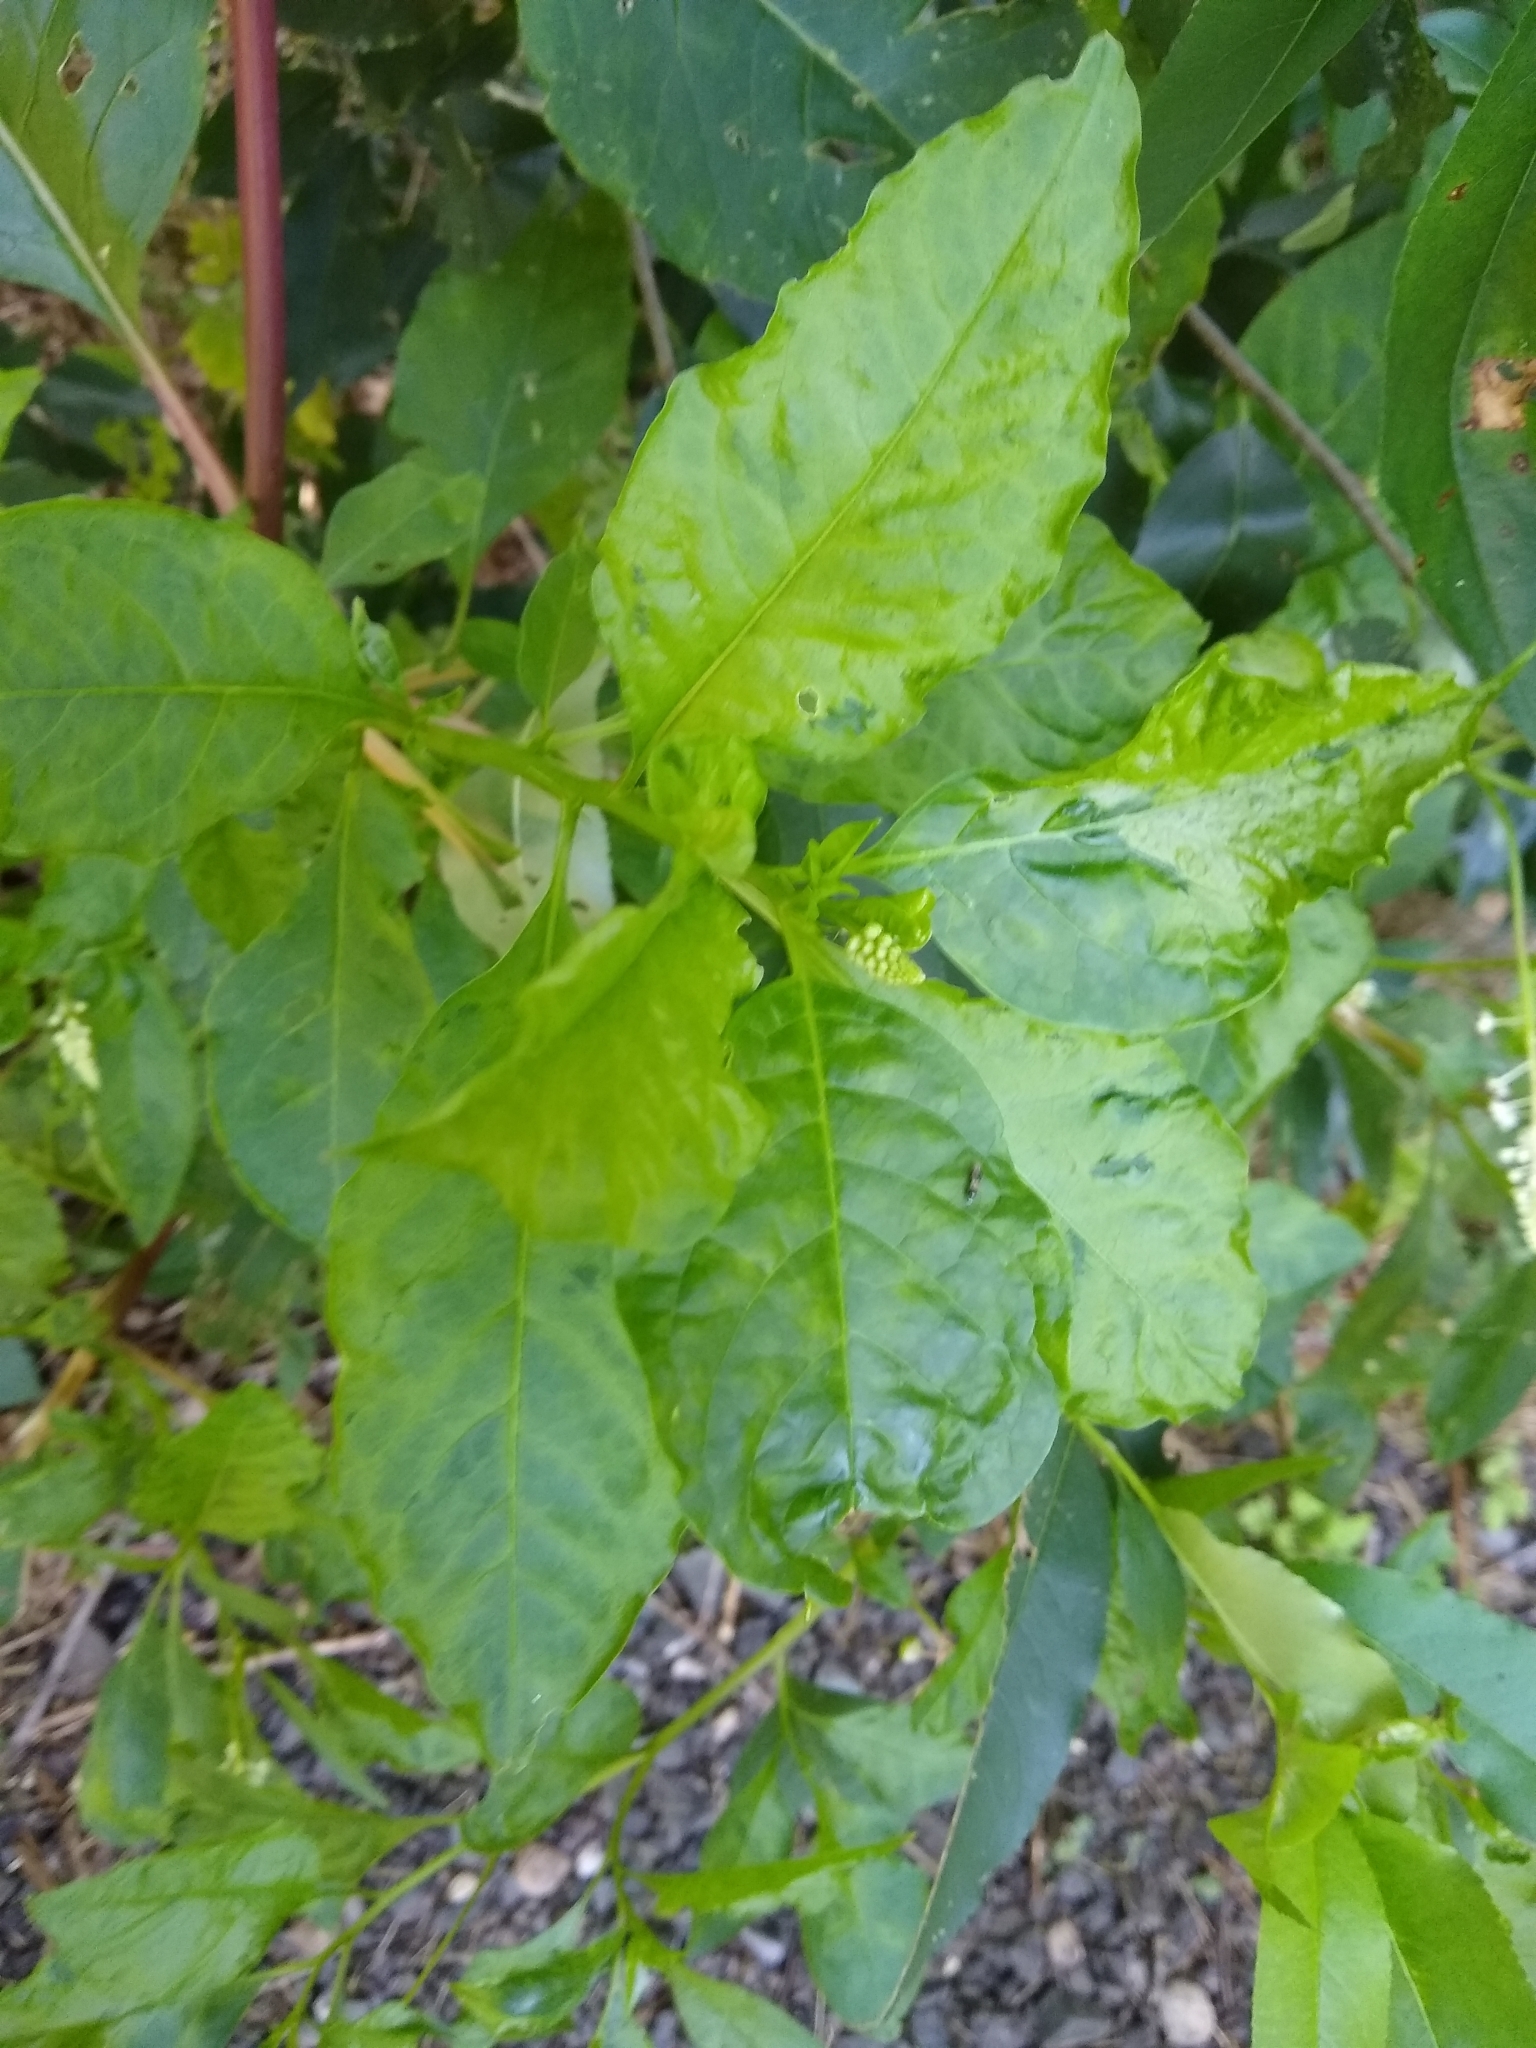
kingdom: Plantae
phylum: Tracheophyta
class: Magnoliopsida
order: Caryophyllales
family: Phytolaccaceae
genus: Phytolacca
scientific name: Phytolacca americana
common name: American pokeweed
